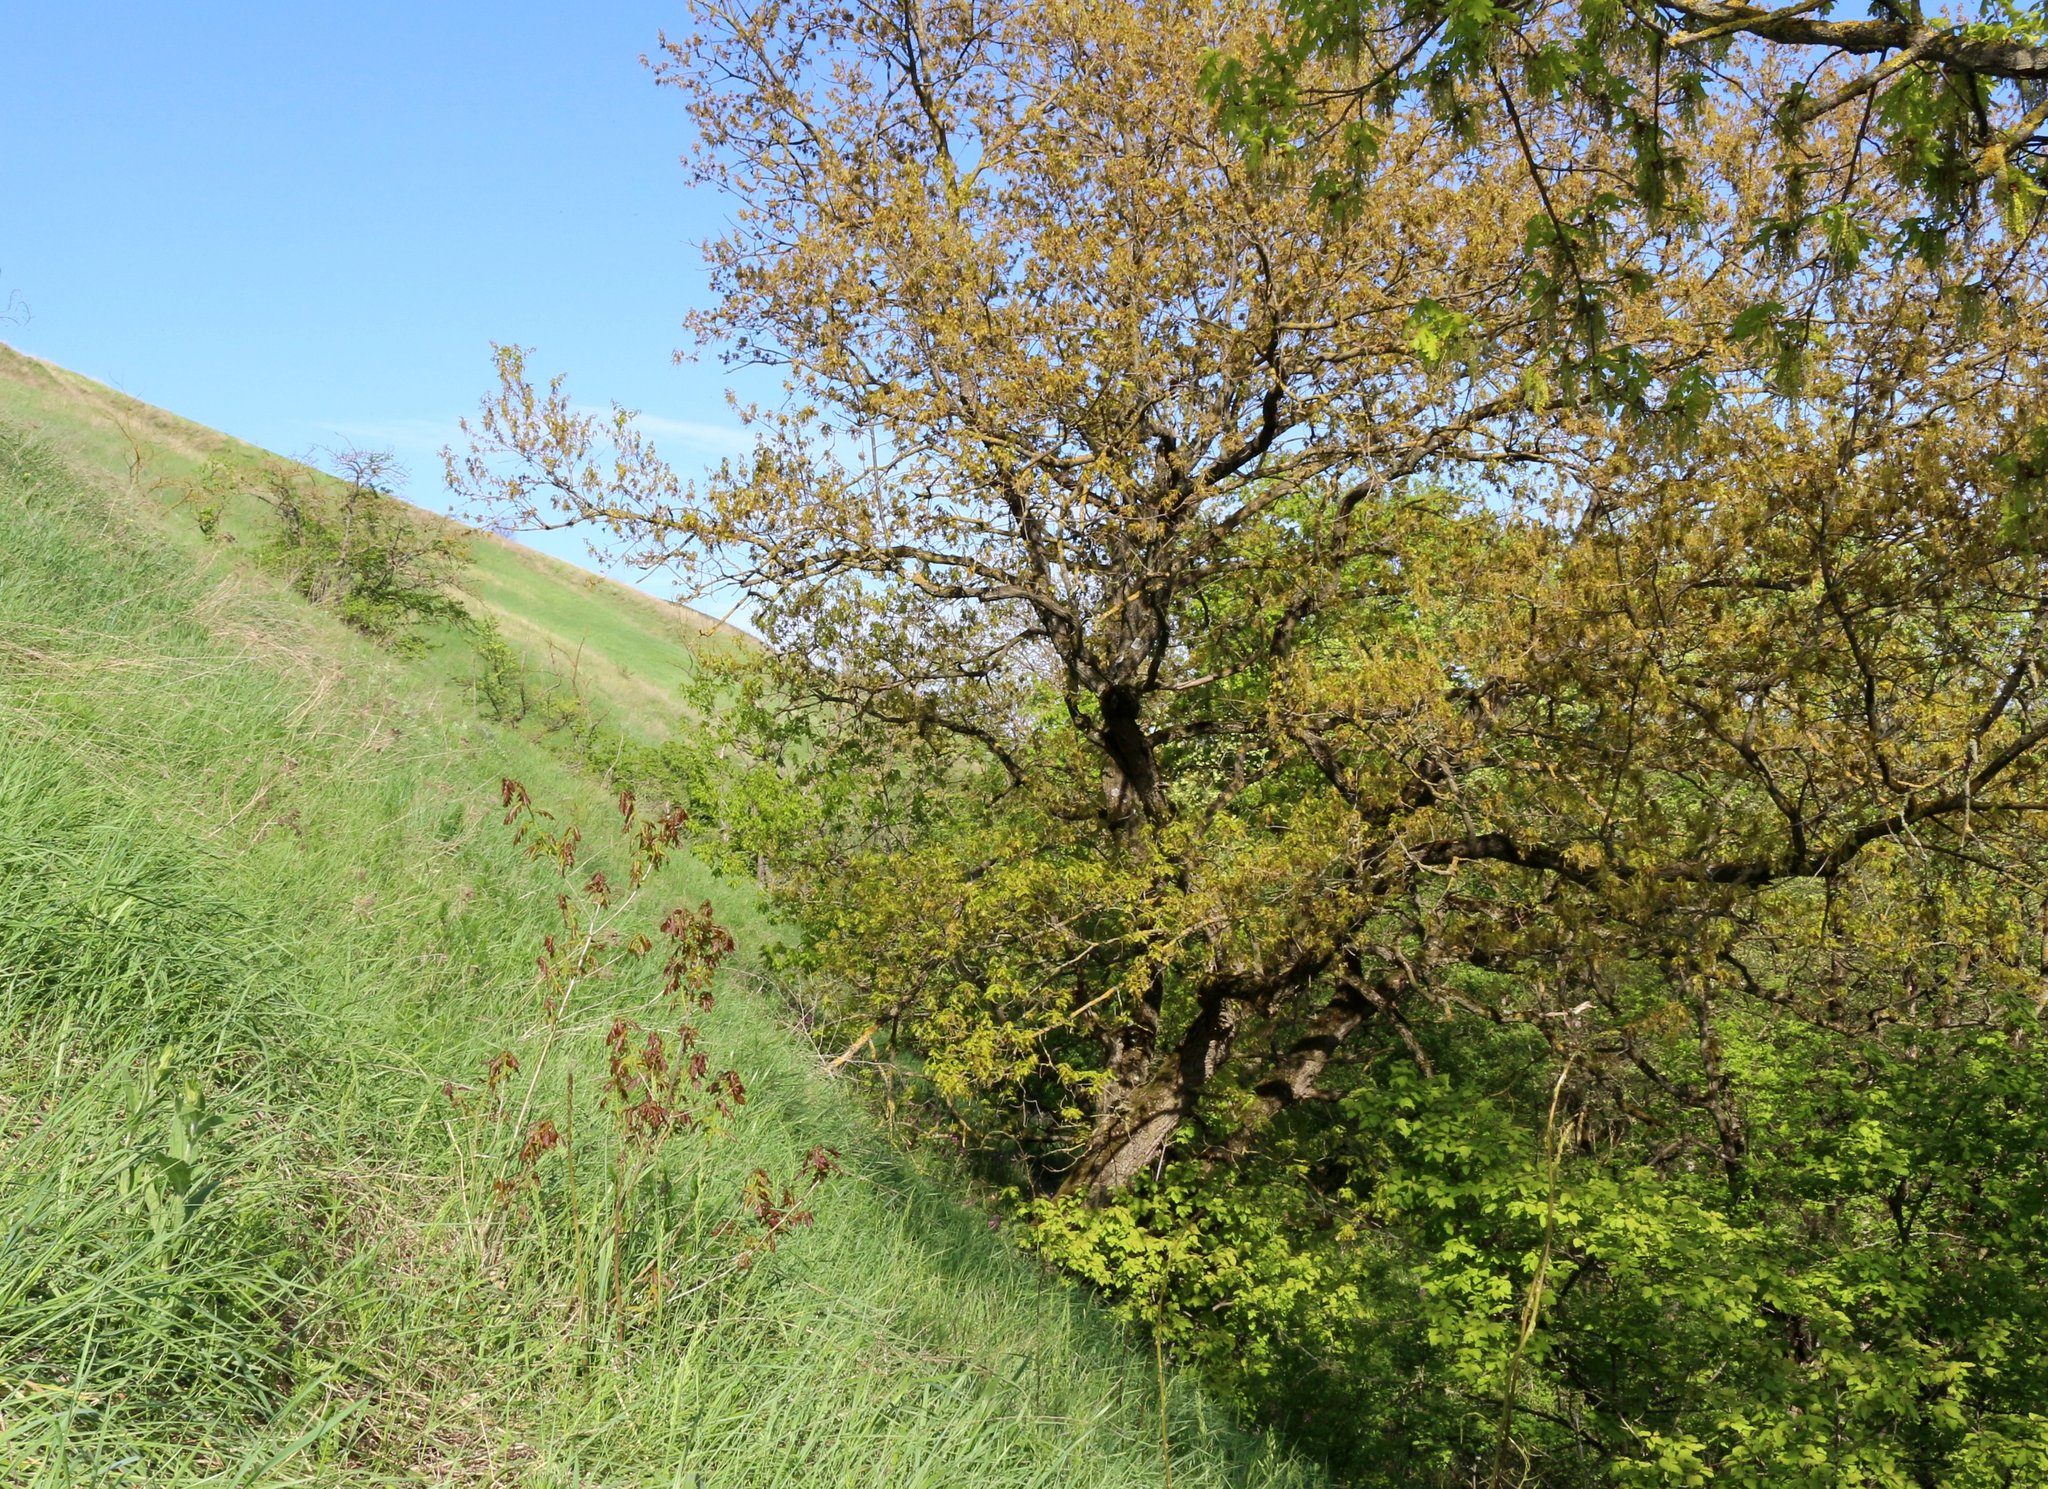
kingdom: Plantae
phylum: Tracheophyta
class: Magnoliopsida
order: Fagales
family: Fagaceae
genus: Quercus
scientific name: Quercus robur
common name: Pedunculate oak
